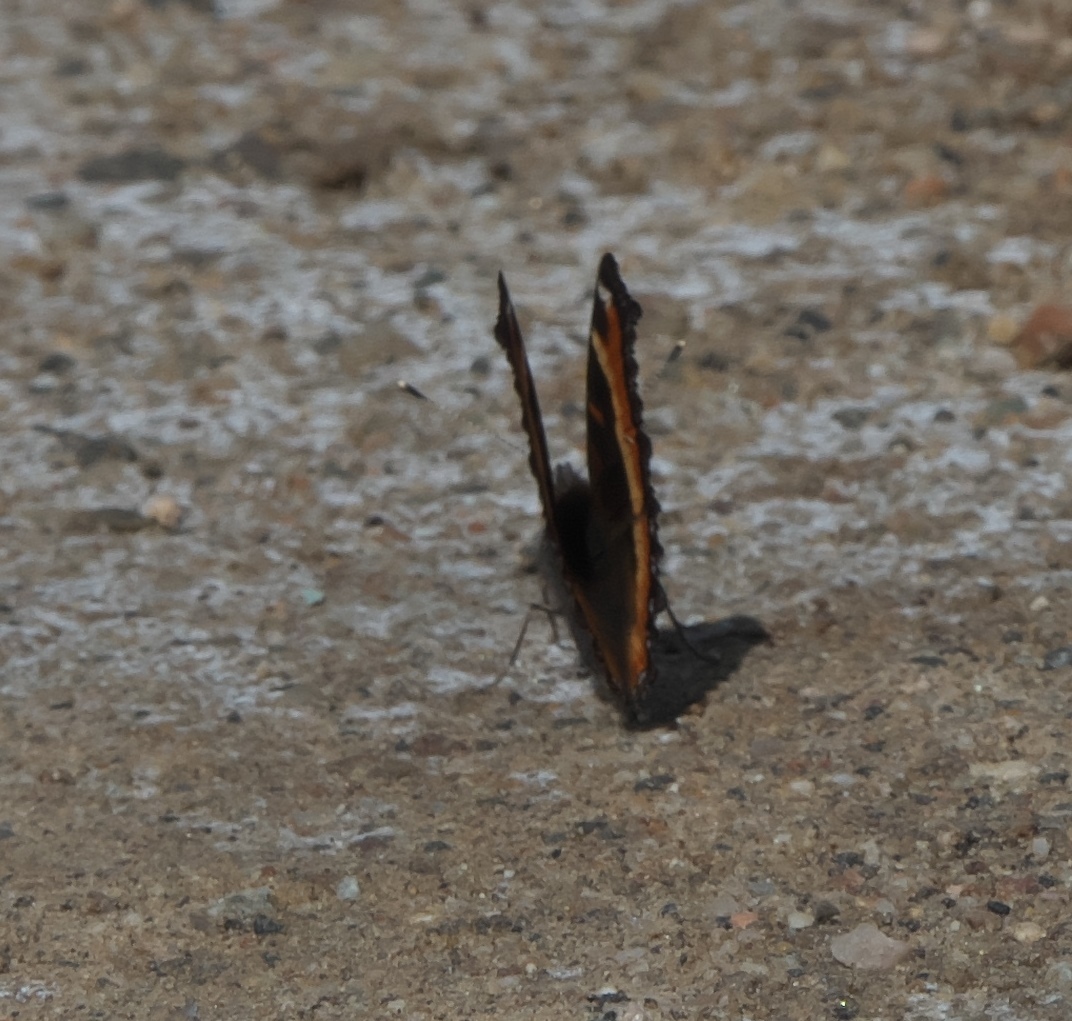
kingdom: Animalia
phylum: Arthropoda
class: Insecta
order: Lepidoptera
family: Nymphalidae
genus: Aglais
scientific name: Aglais milberti
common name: Milbert's tortoiseshell
